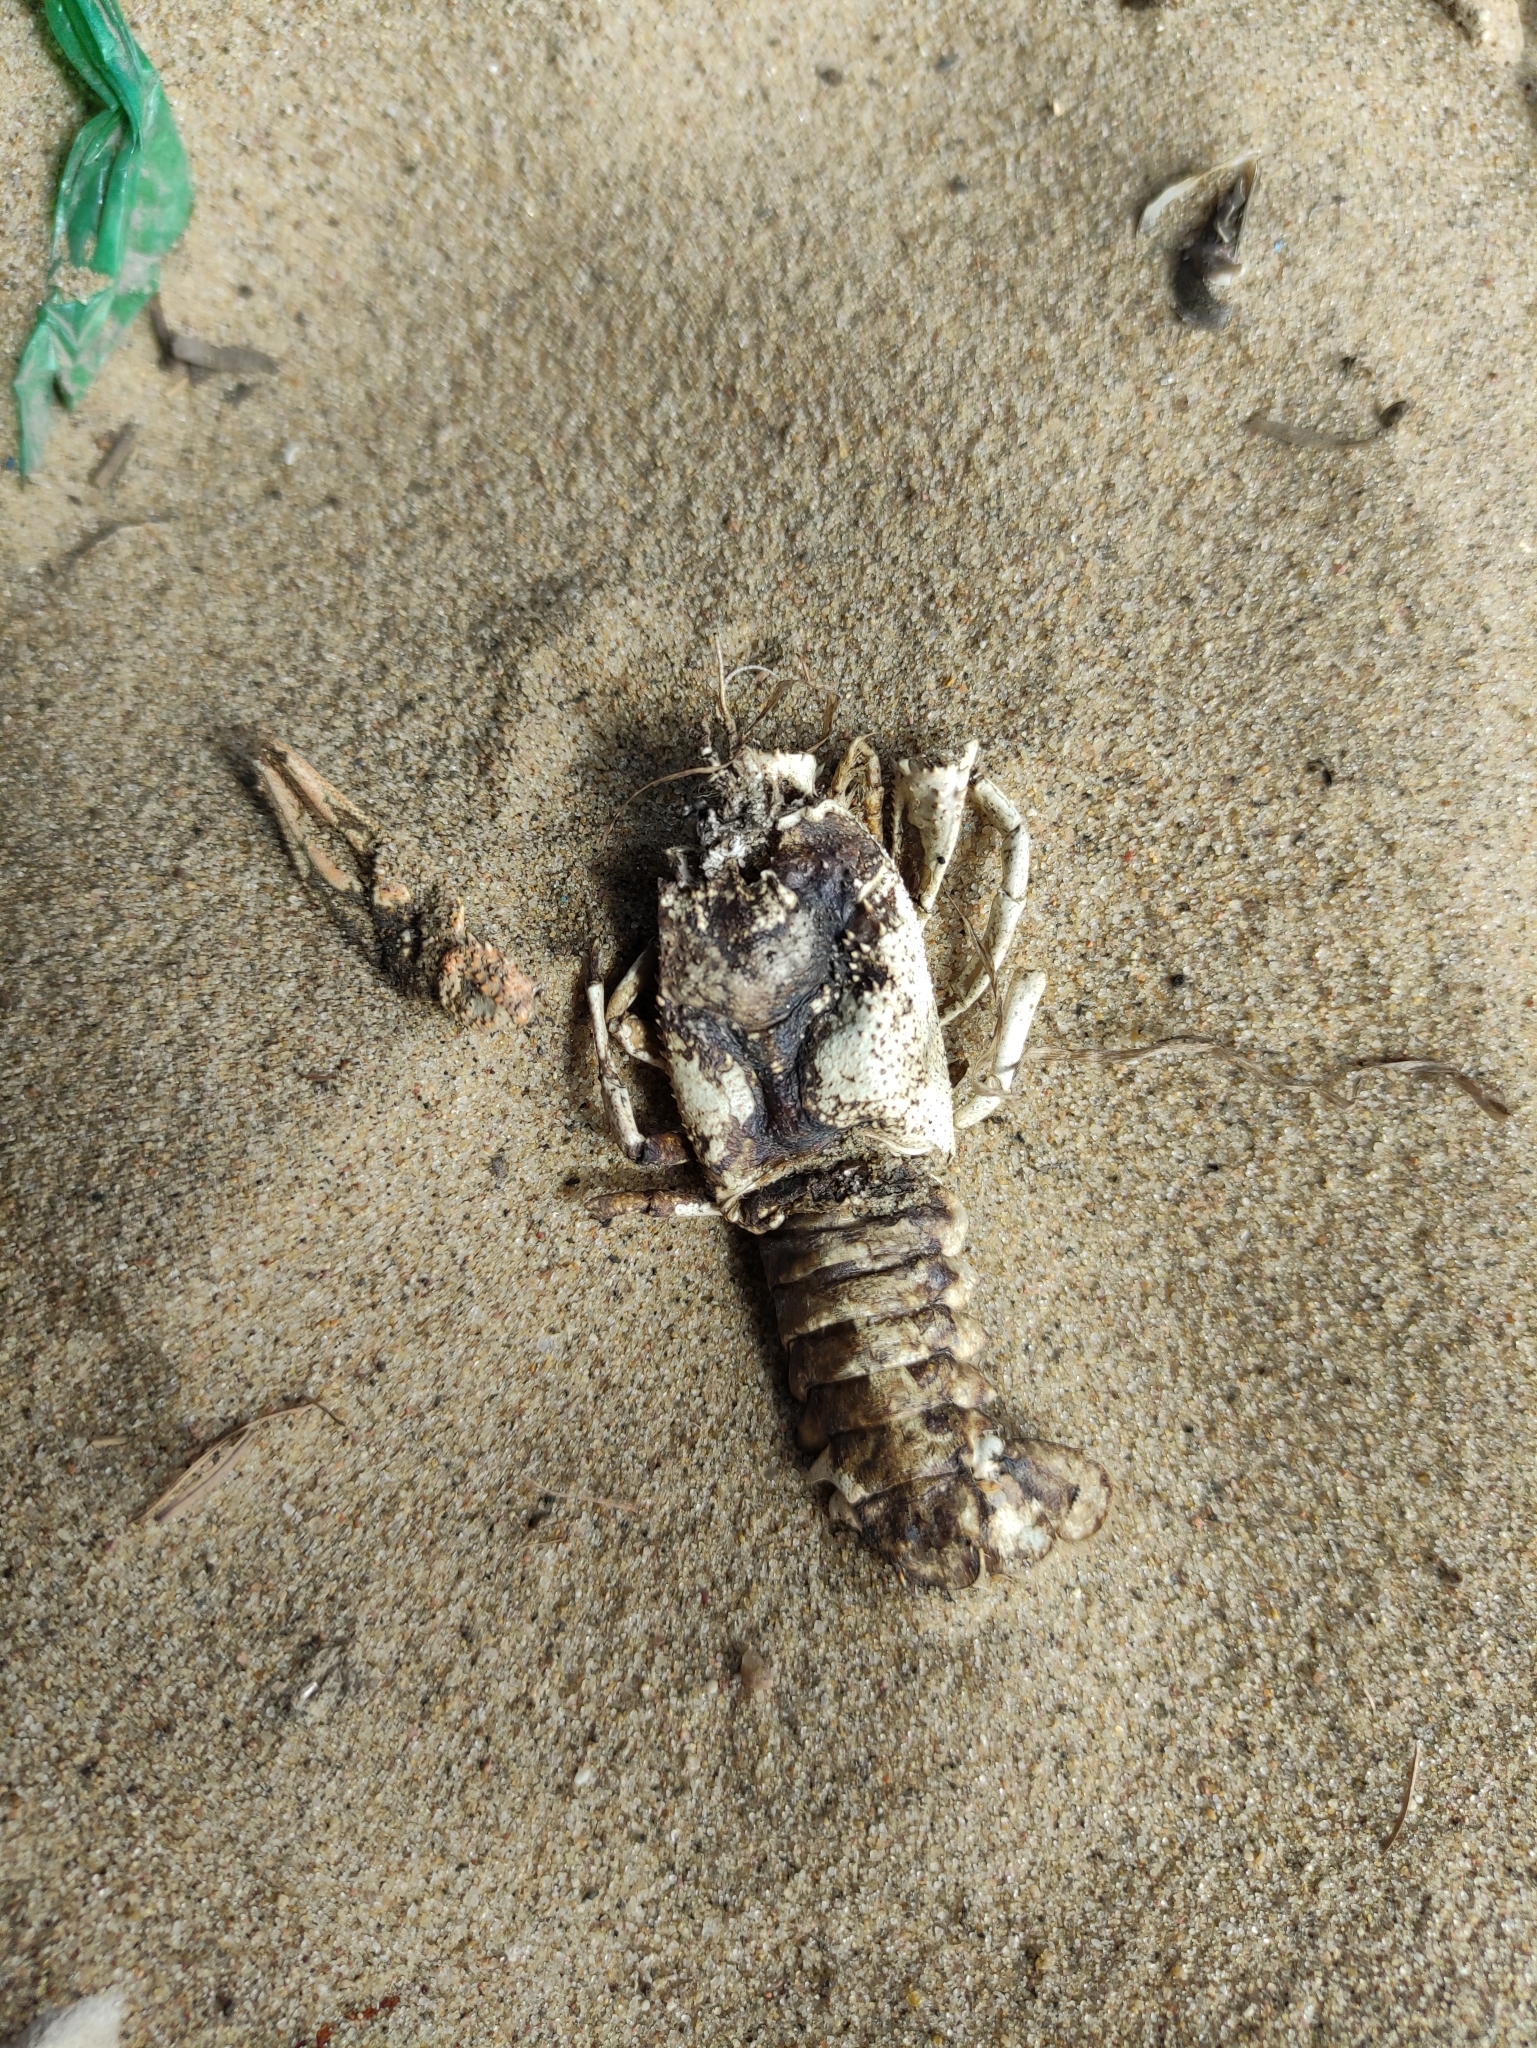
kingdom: Animalia
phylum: Arthropoda
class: Malacostraca
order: Decapoda
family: Astacidae
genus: Pontastacus
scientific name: Pontastacus leptodactylus
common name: Danube crayfish
